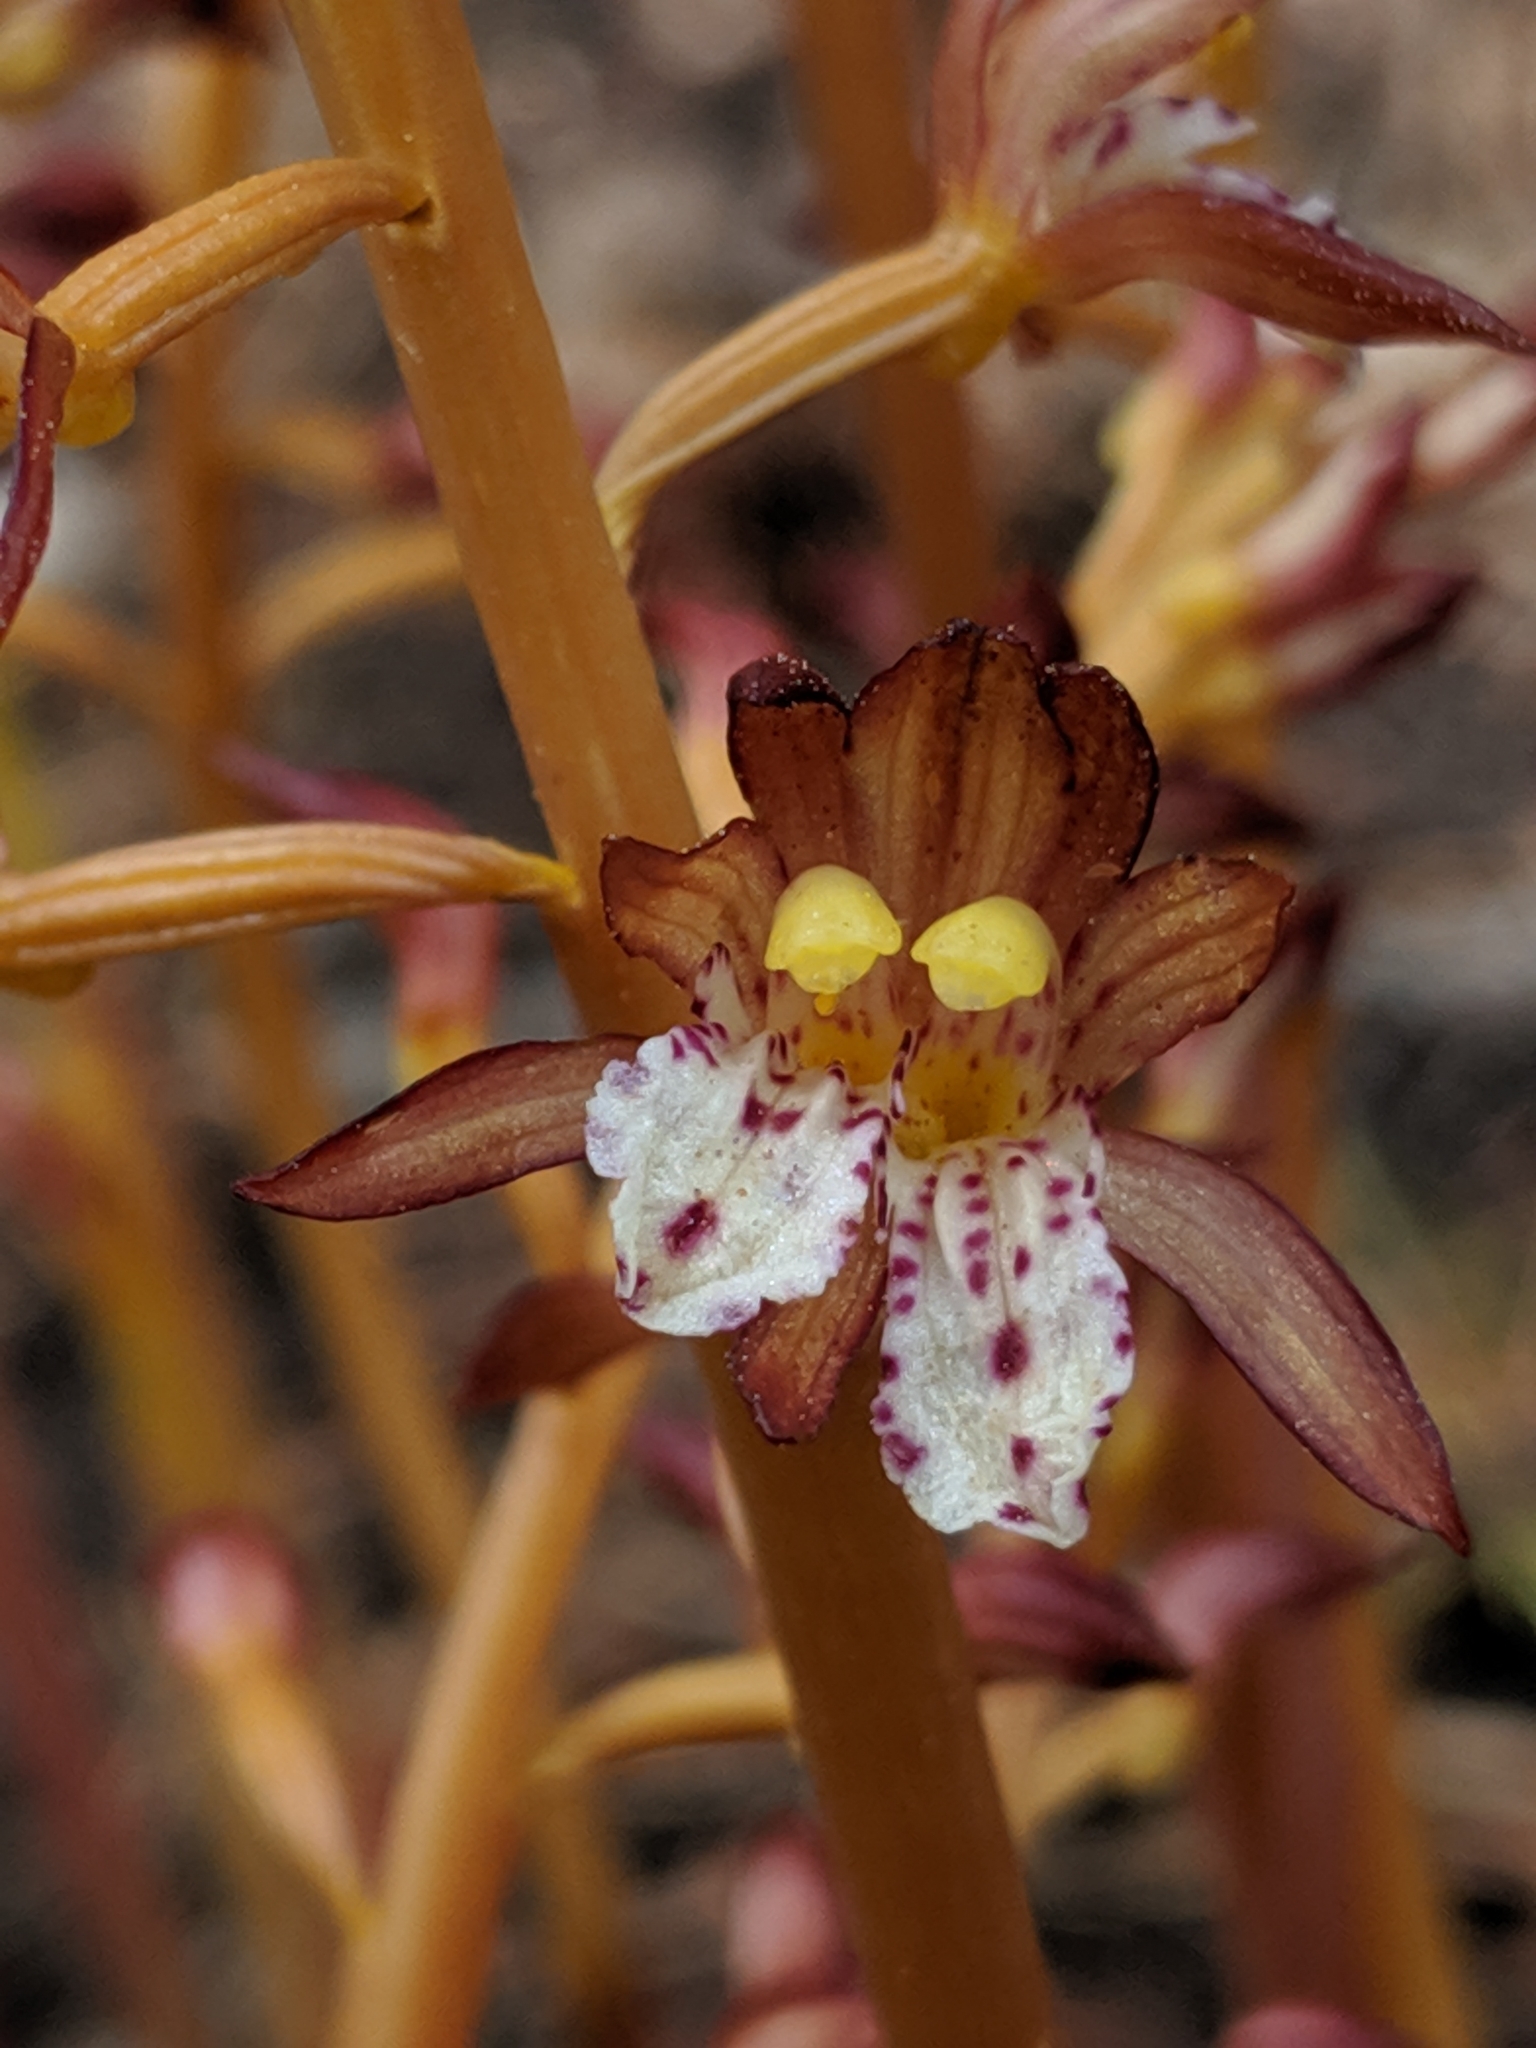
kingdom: Plantae
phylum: Tracheophyta
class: Liliopsida
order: Asparagales
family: Orchidaceae
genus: Corallorhiza
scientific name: Corallorhiza maculata
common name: Spotted coralroot
